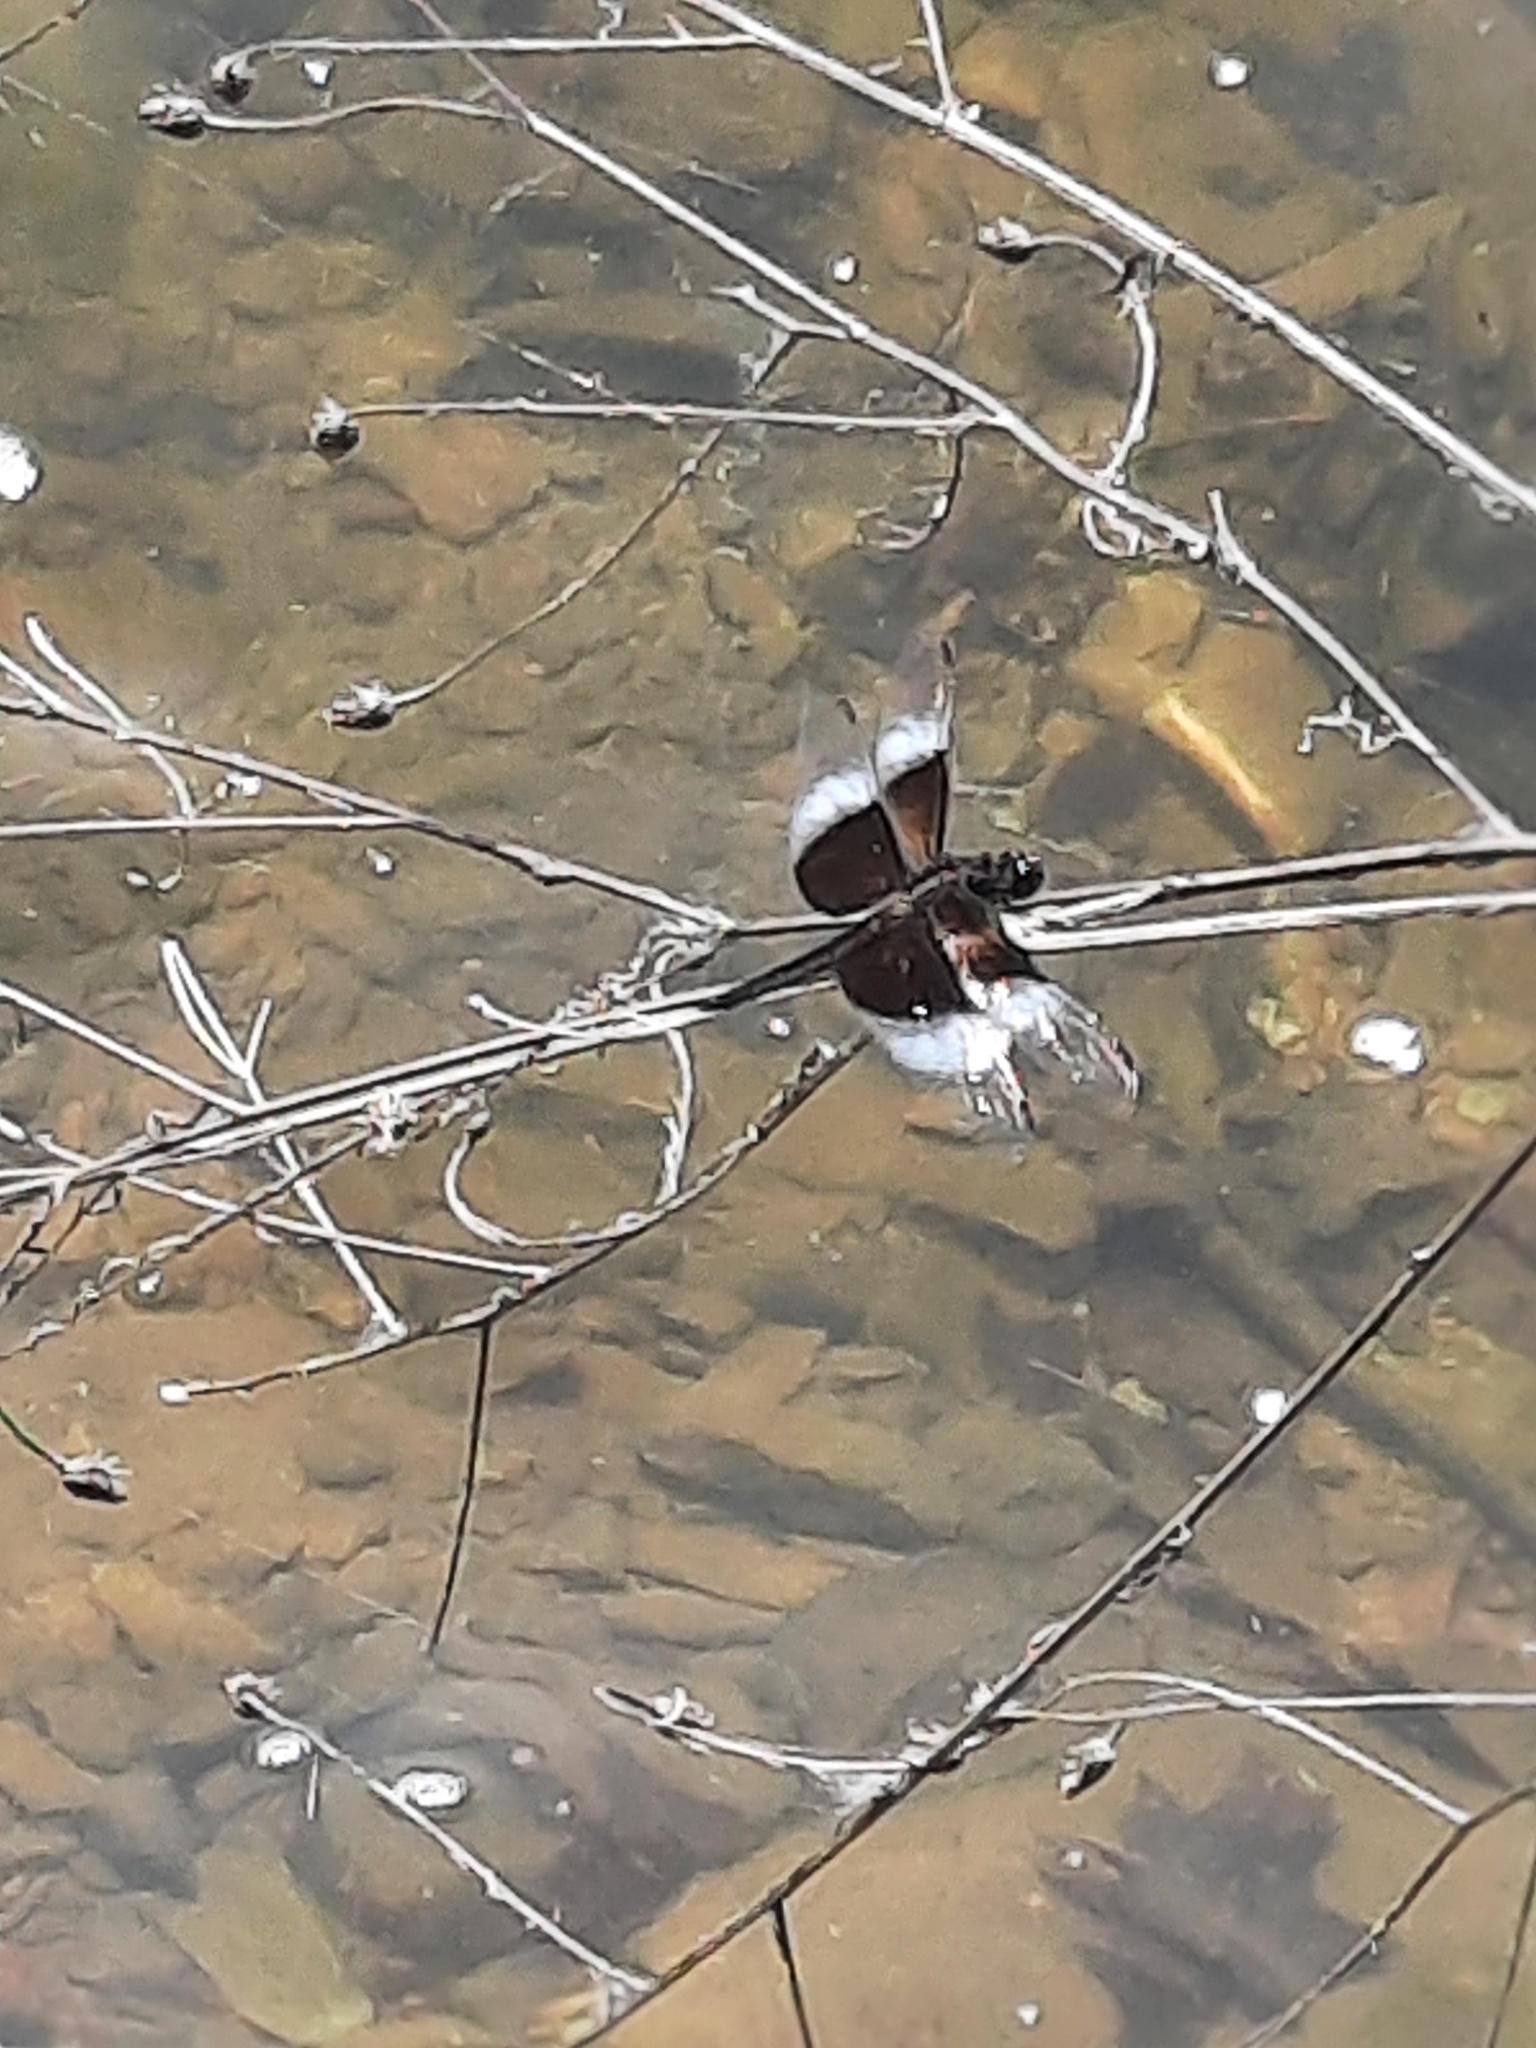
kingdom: Animalia
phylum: Arthropoda
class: Insecta
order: Odonata
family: Libellulidae
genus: Libellula
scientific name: Libellula luctuosa
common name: Widow skimmer
